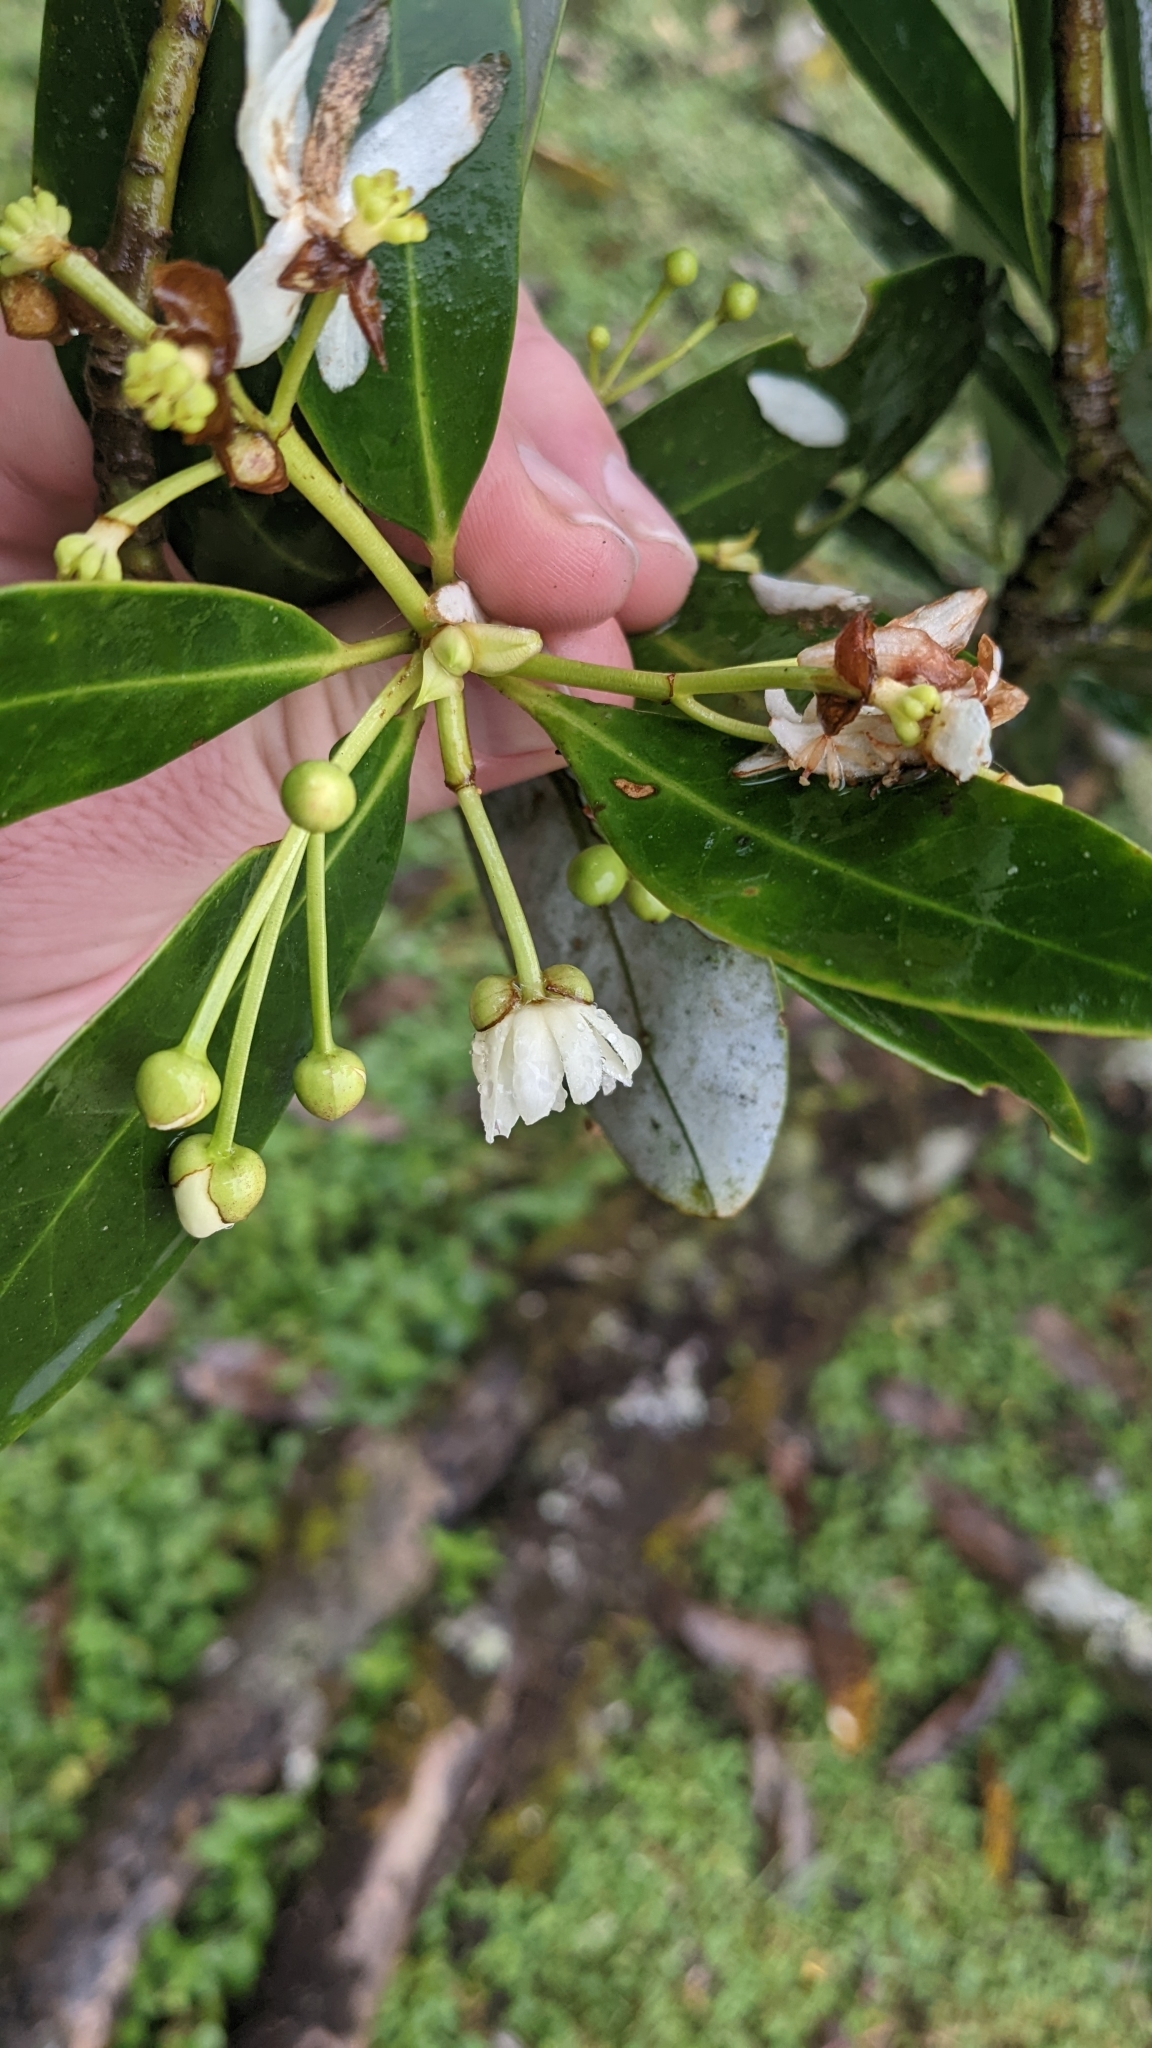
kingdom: Plantae
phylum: Tracheophyta
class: Magnoliopsida
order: Canellales
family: Winteraceae
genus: Drimys
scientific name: Drimys granadensis
